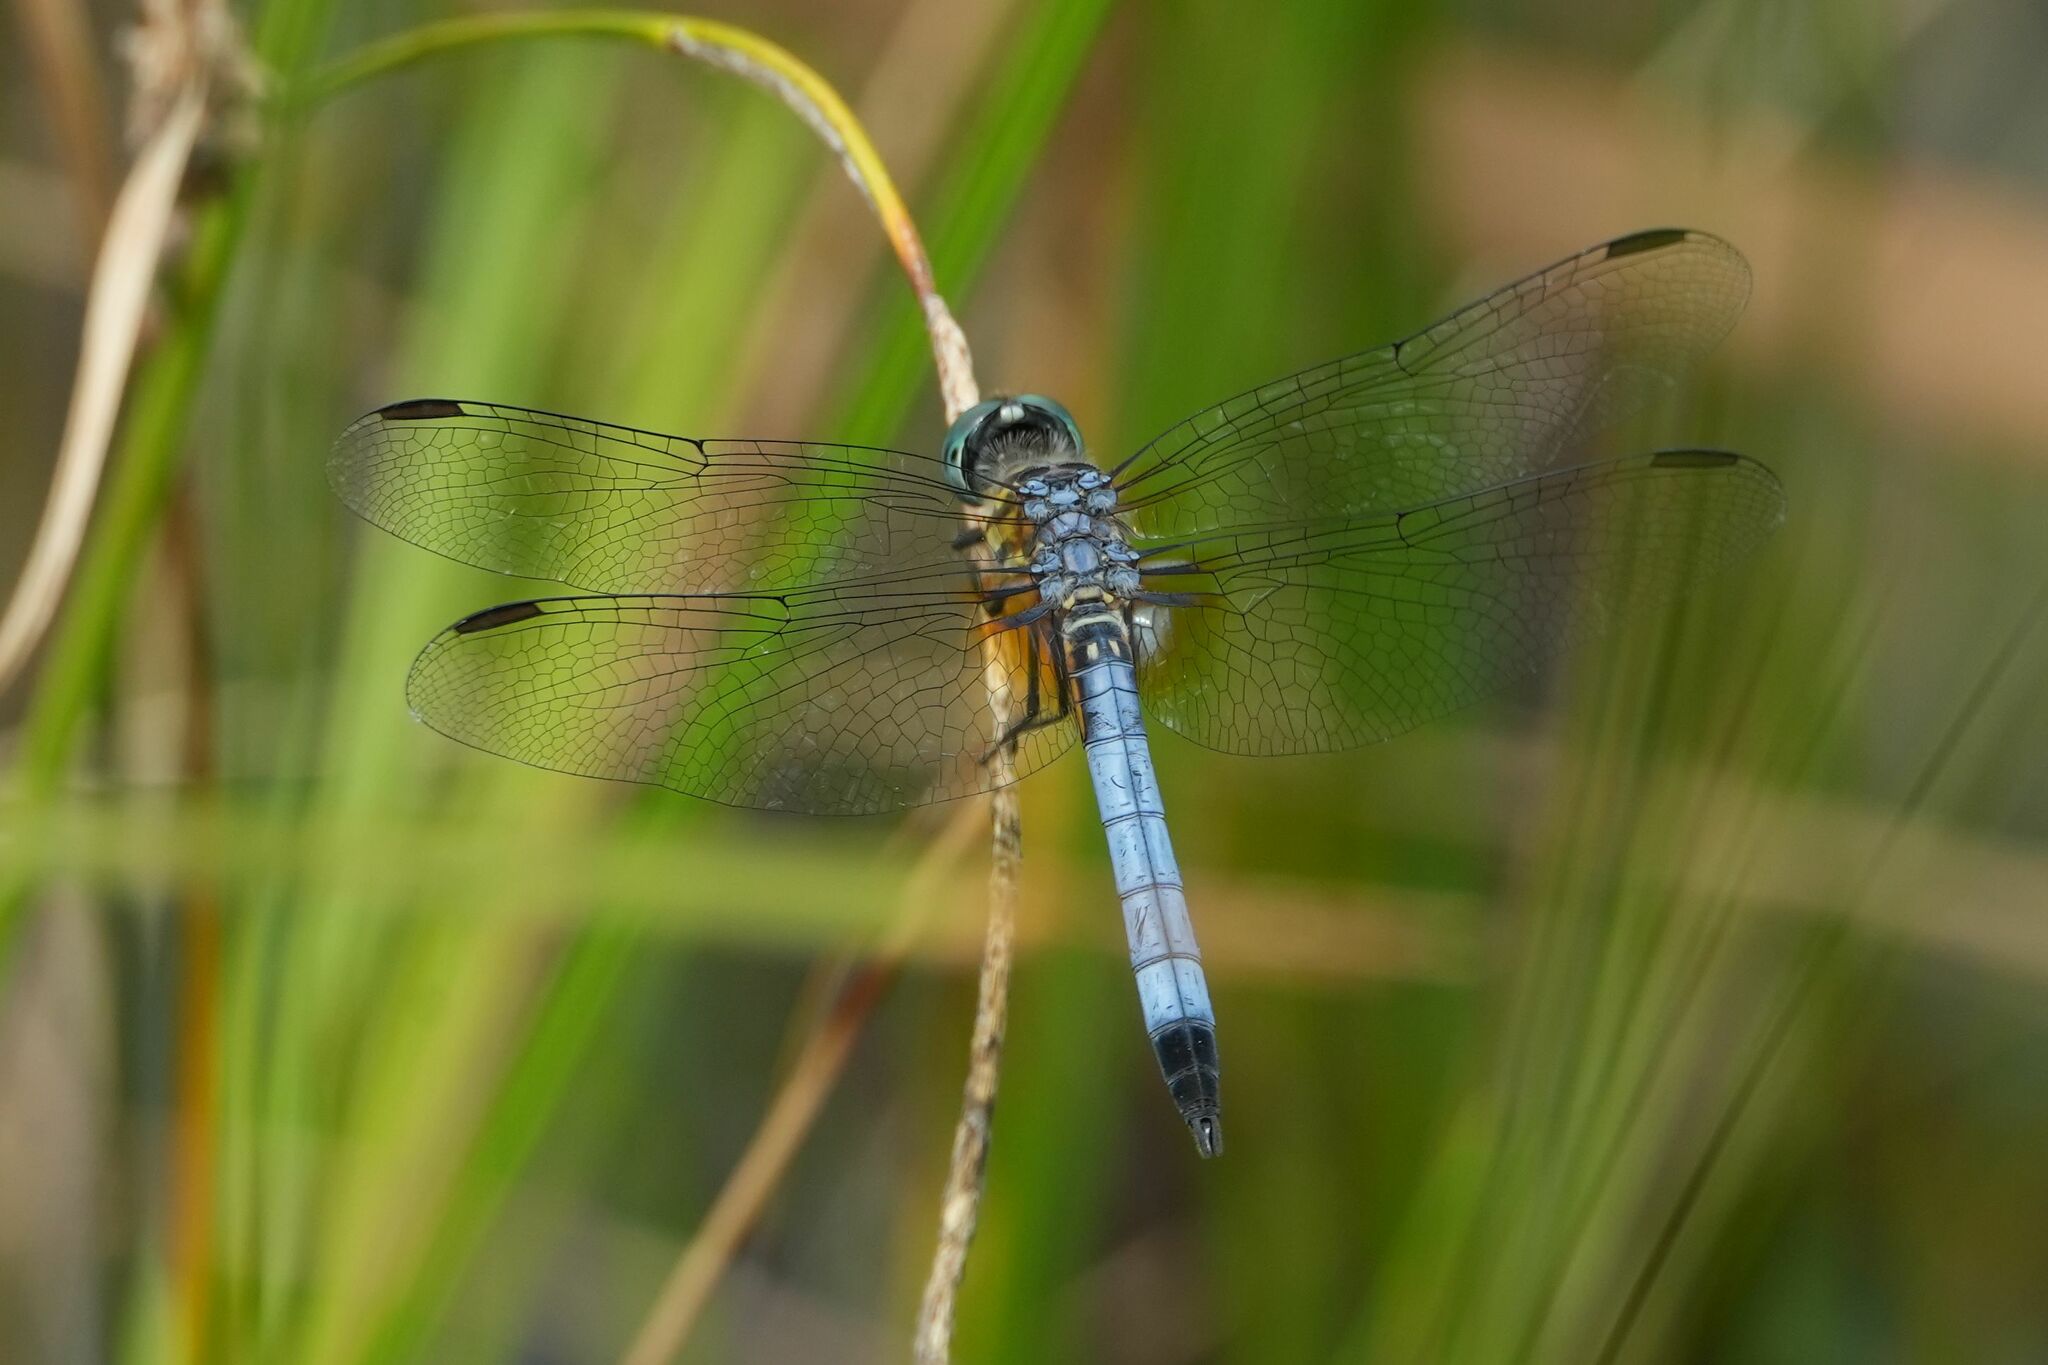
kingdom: Animalia
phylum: Arthropoda
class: Insecta
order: Odonata
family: Libellulidae
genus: Pachydiplax
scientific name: Pachydiplax longipennis
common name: Blue dasher
